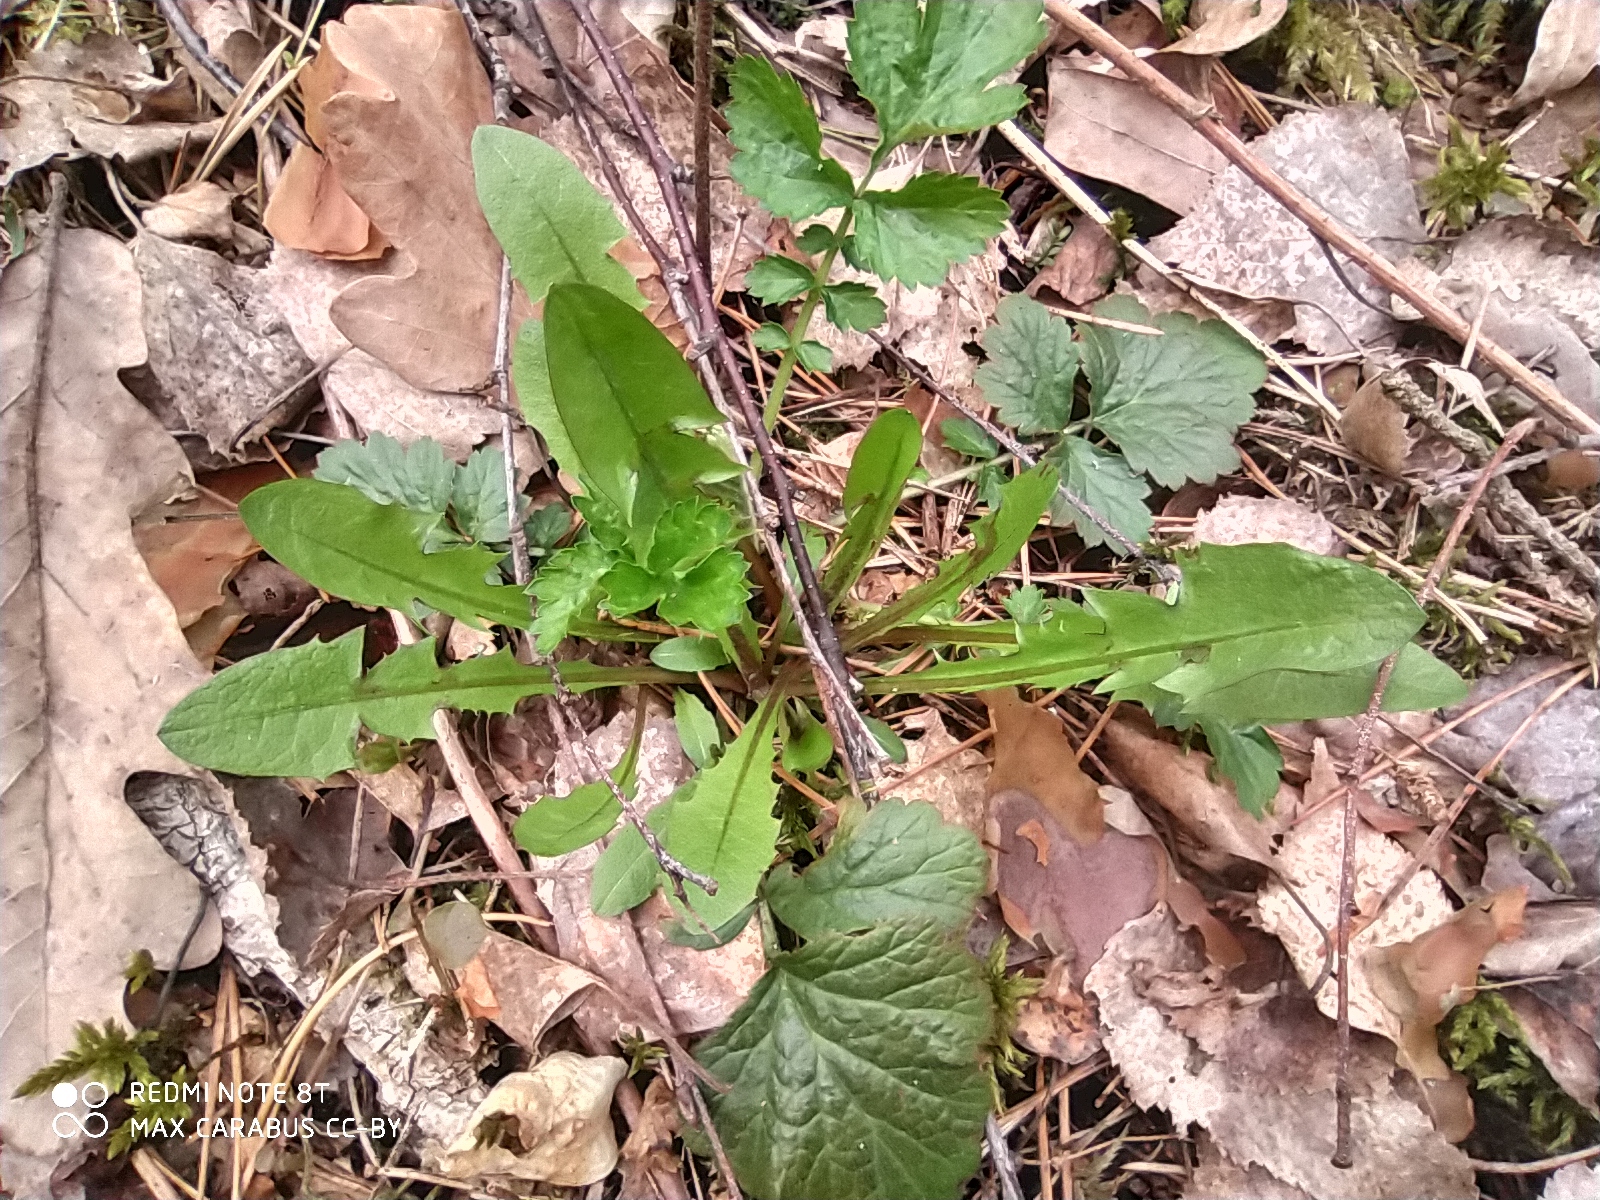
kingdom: Plantae
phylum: Tracheophyta
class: Magnoliopsida
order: Asterales
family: Asteraceae
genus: Taraxacum
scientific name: Taraxacum officinale
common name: Common dandelion
